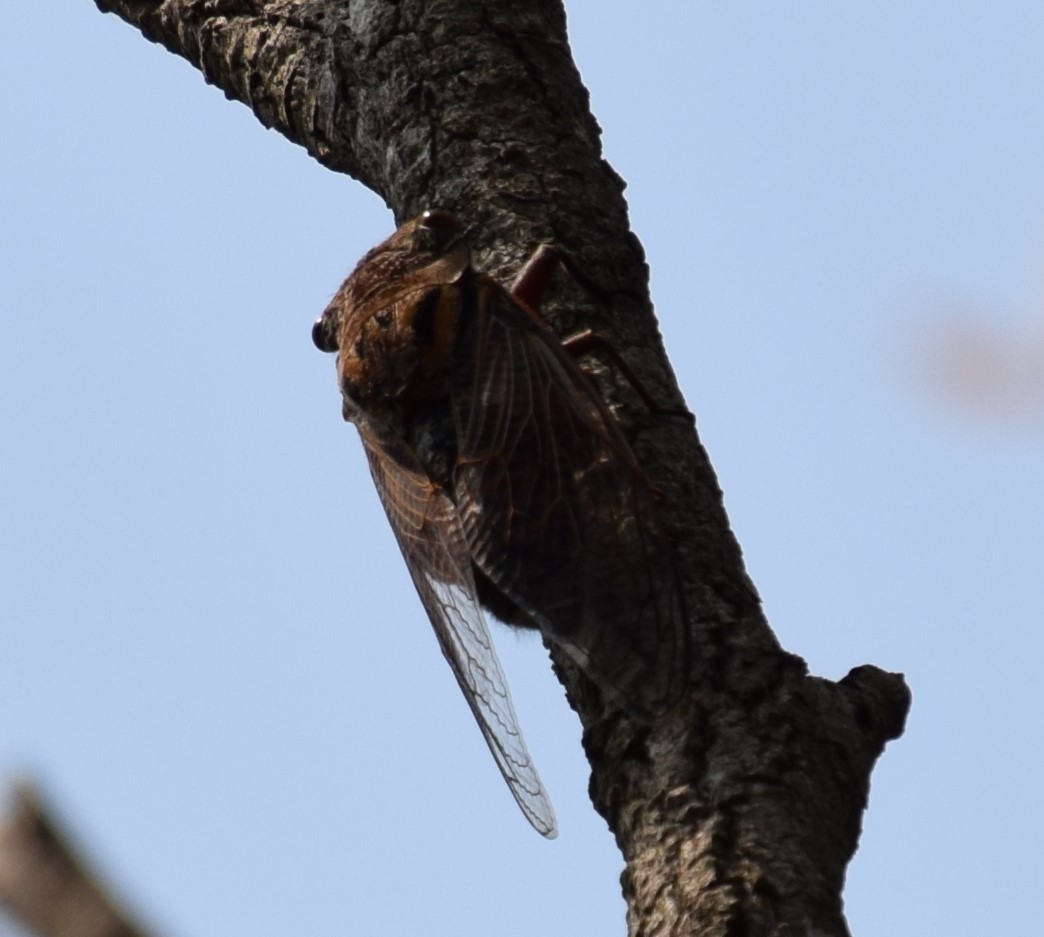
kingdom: Animalia
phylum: Arthropoda
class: Insecta
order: Hemiptera
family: Cicadidae
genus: Thopha
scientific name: Thopha saccata
